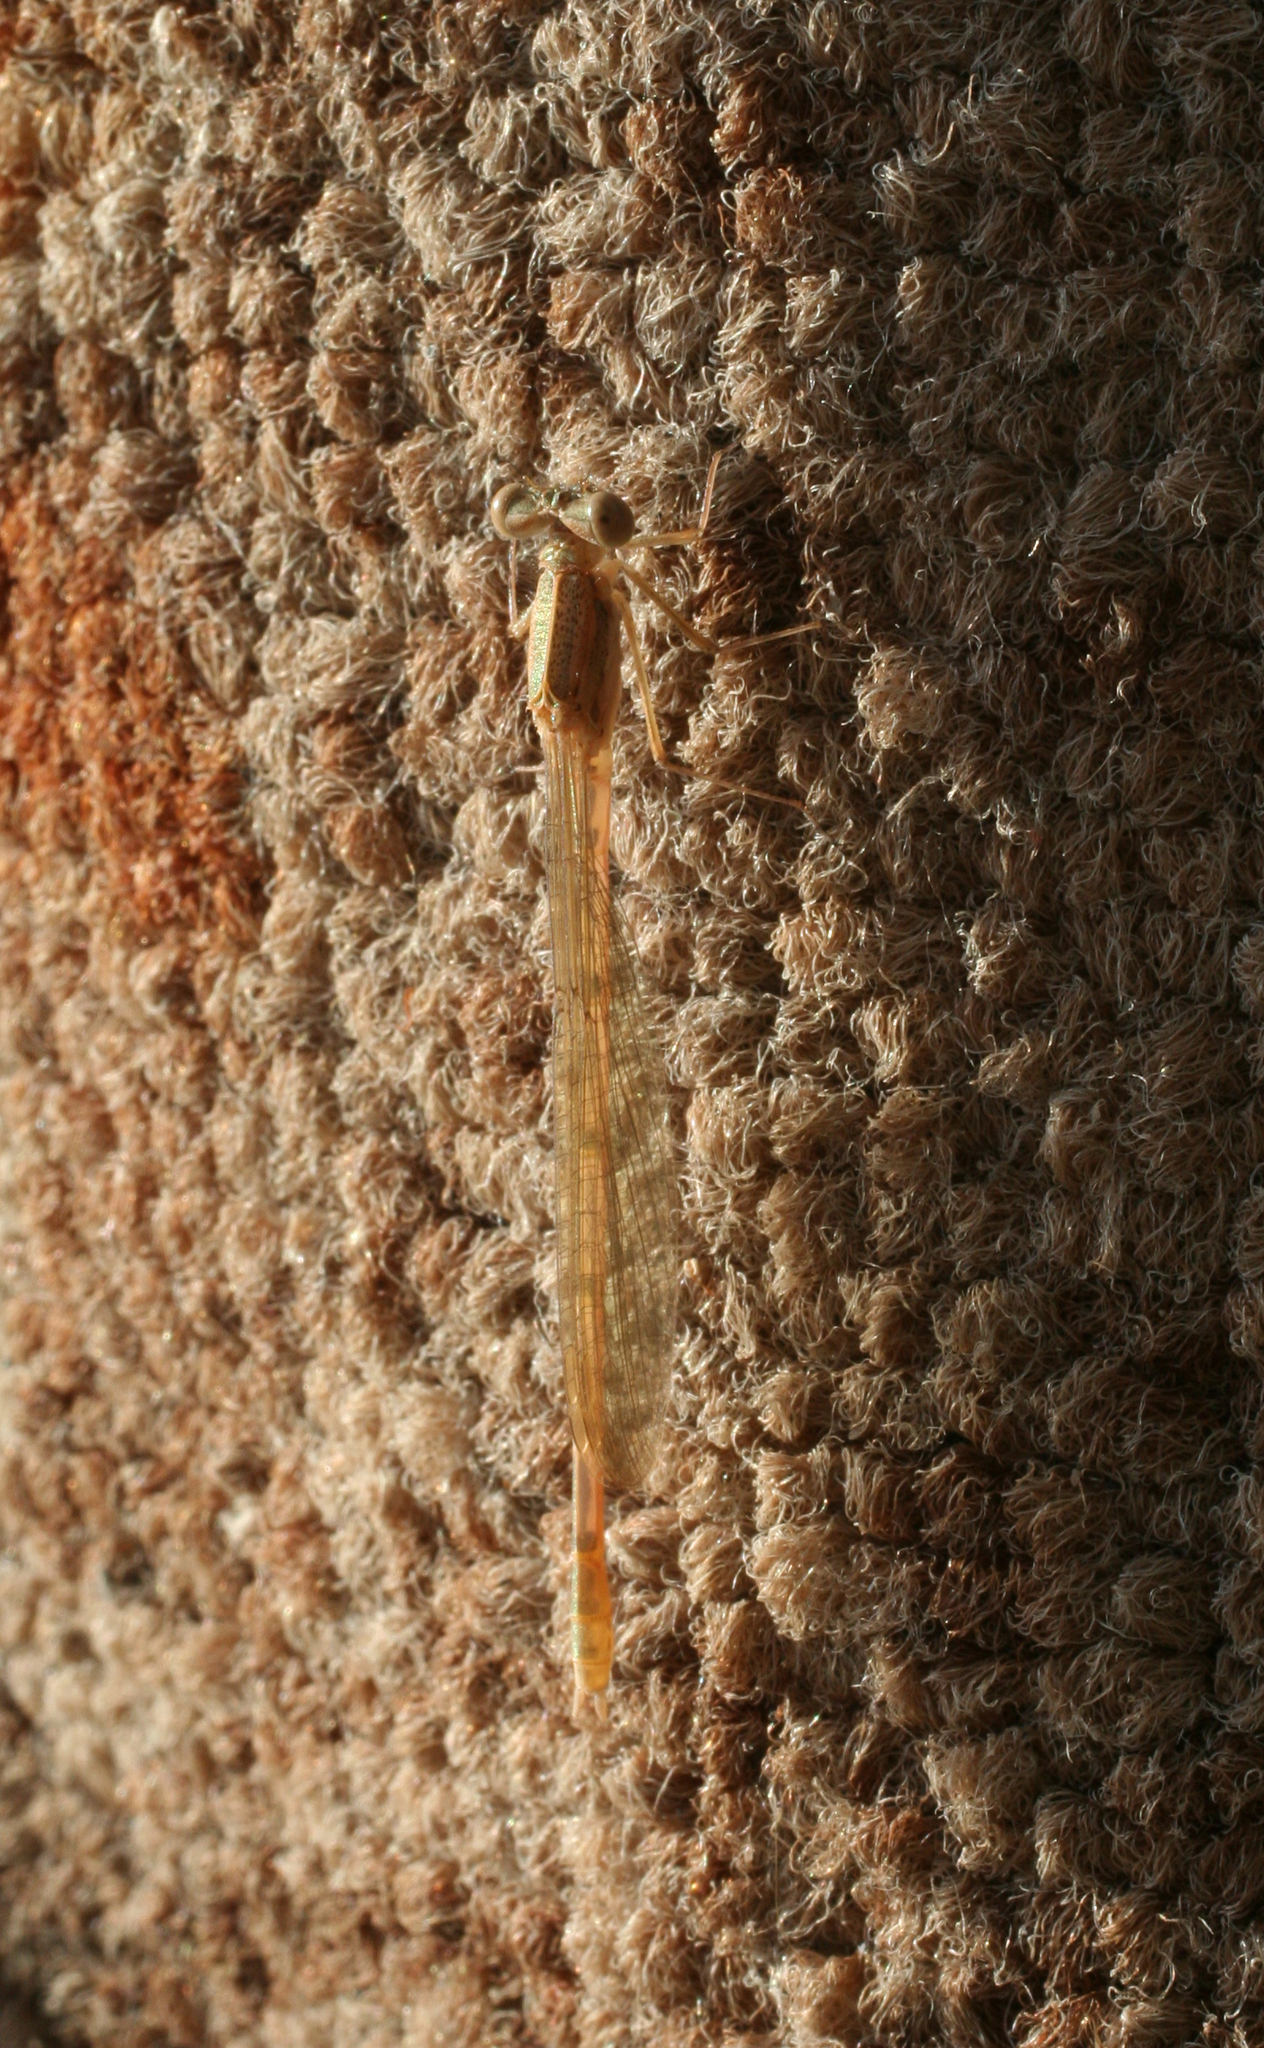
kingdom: Animalia
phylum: Arthropoda
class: Insecta
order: Odonata
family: Lestidae
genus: Sympecma
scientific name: Sympecma fusca
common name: Common winter damsel
